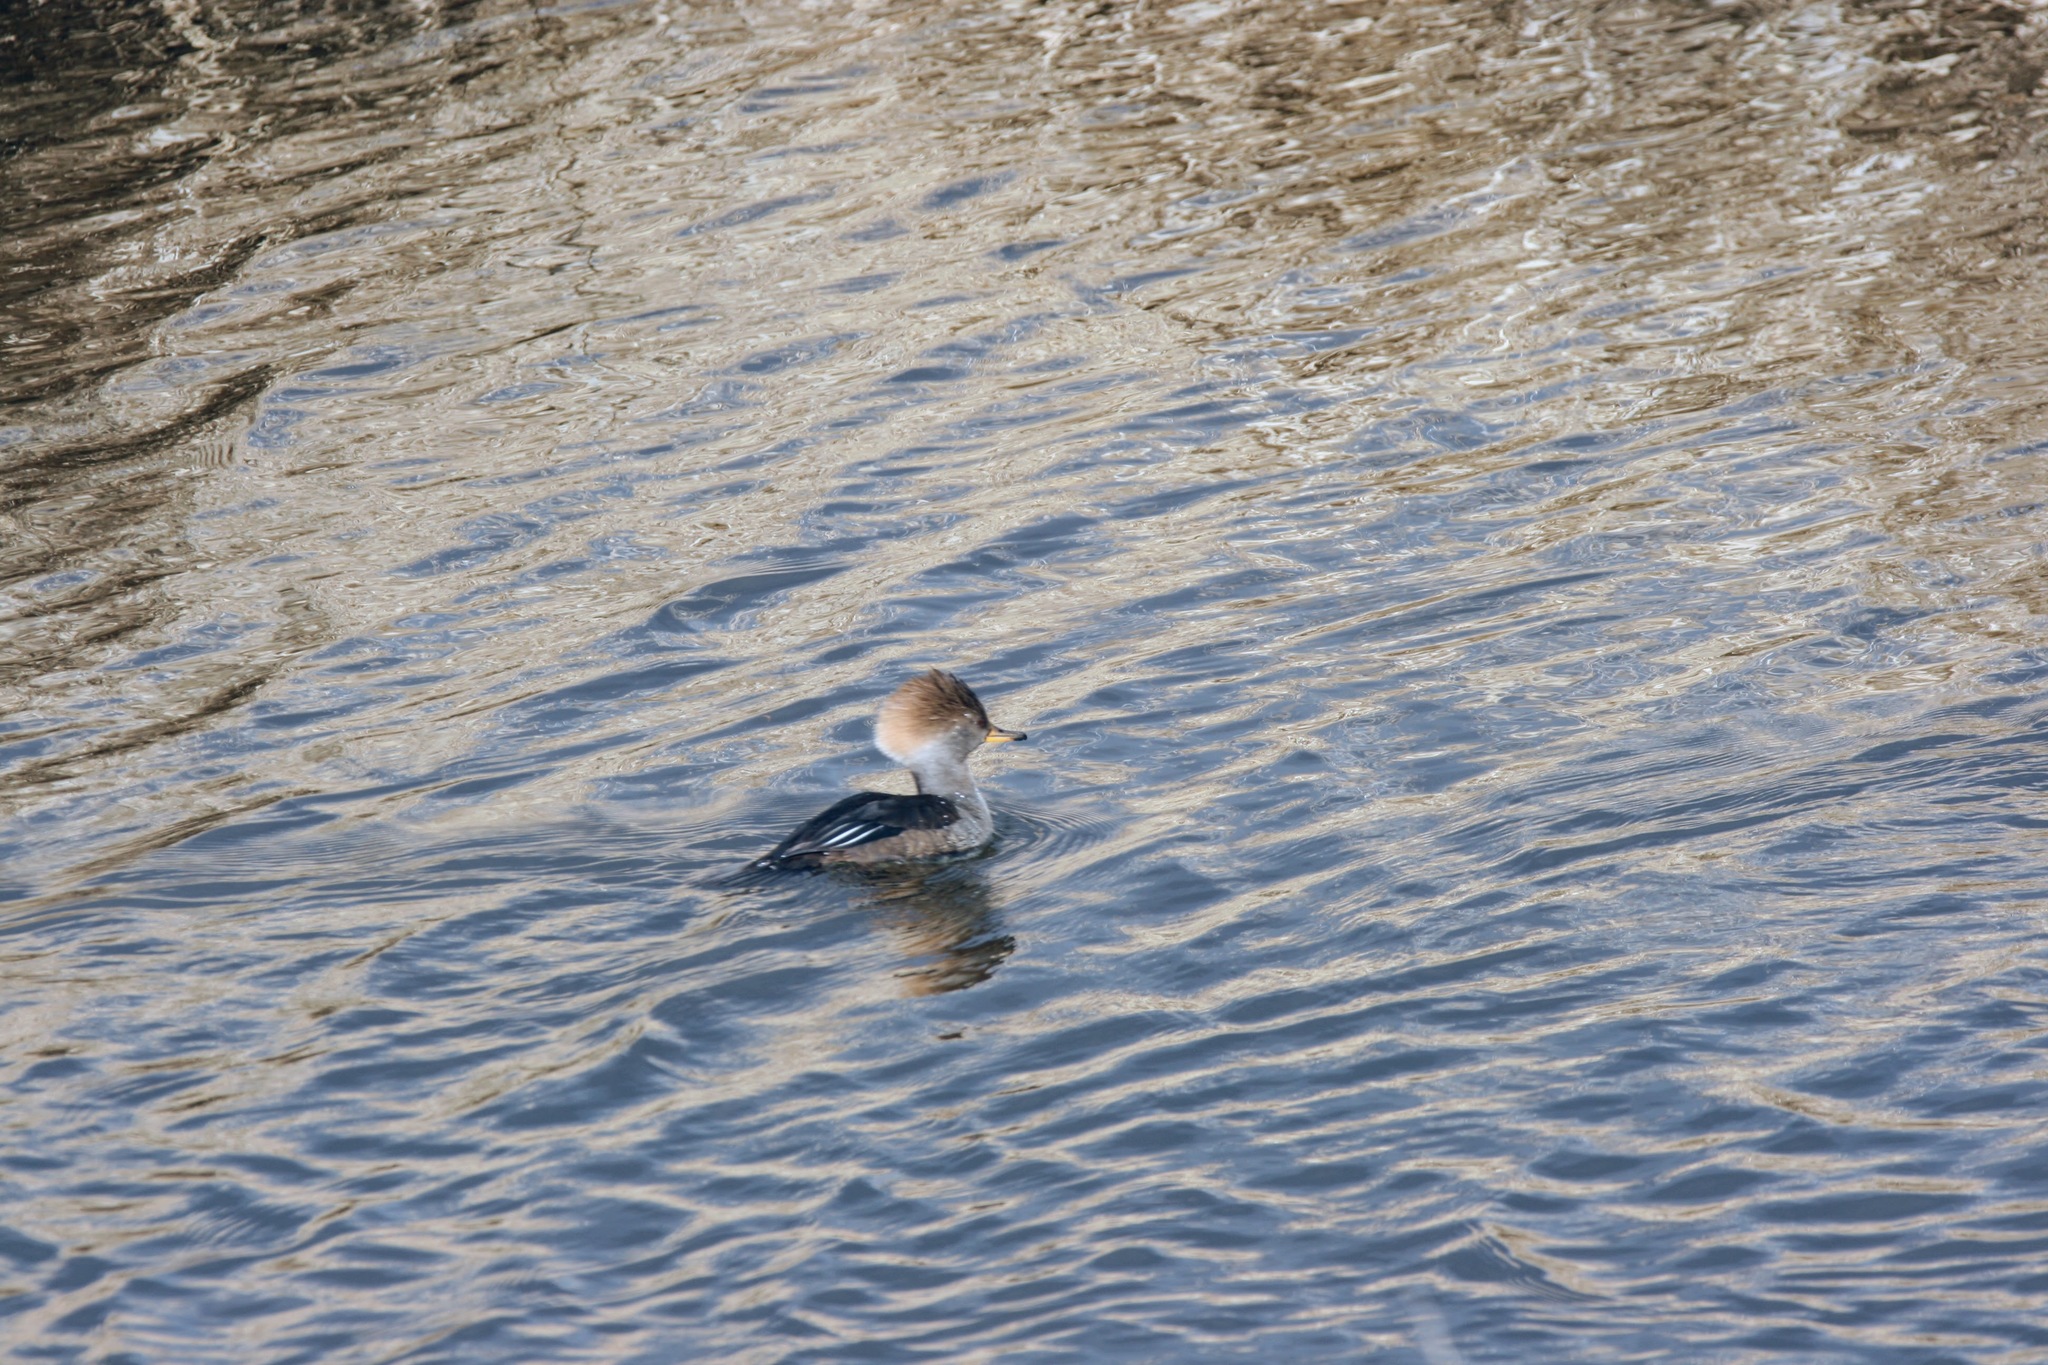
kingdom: Animalia
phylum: Chordata
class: Aves
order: Anseriformes
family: Anatidae
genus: Lophodytes
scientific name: Lophodytes cucullatus
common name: Hooded merganser
